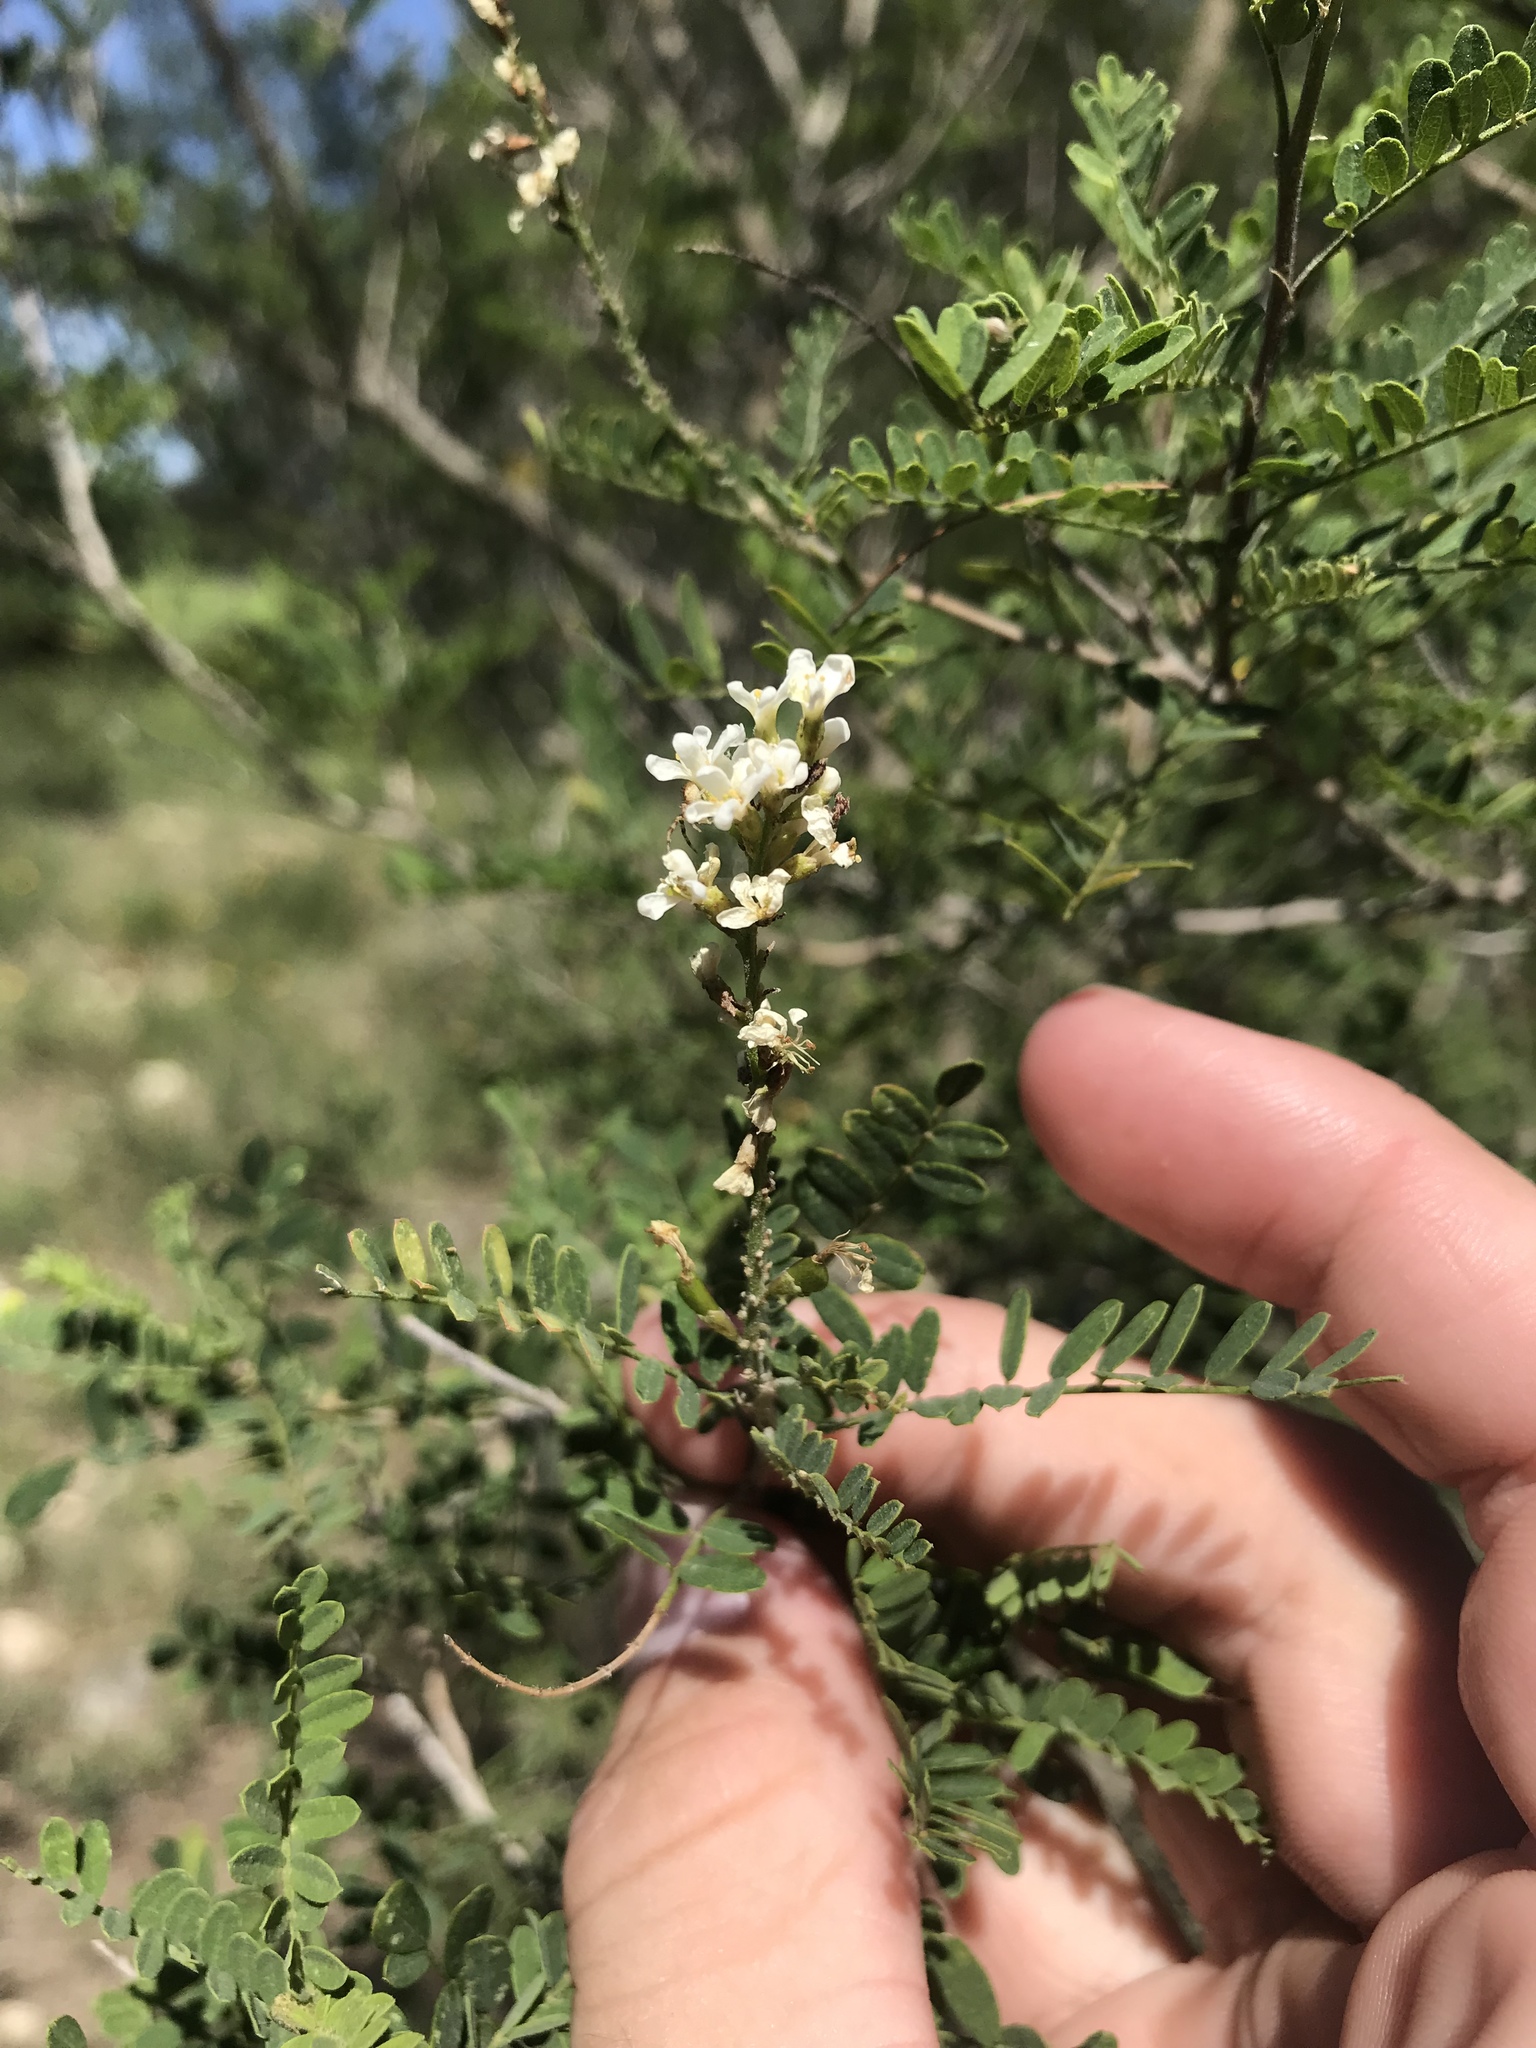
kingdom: Plantae
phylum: Tracheophyta
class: Magnoliopsida
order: Fabales
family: Fabaceae
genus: Eysenhardtia
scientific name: Eysenhardtia texana
